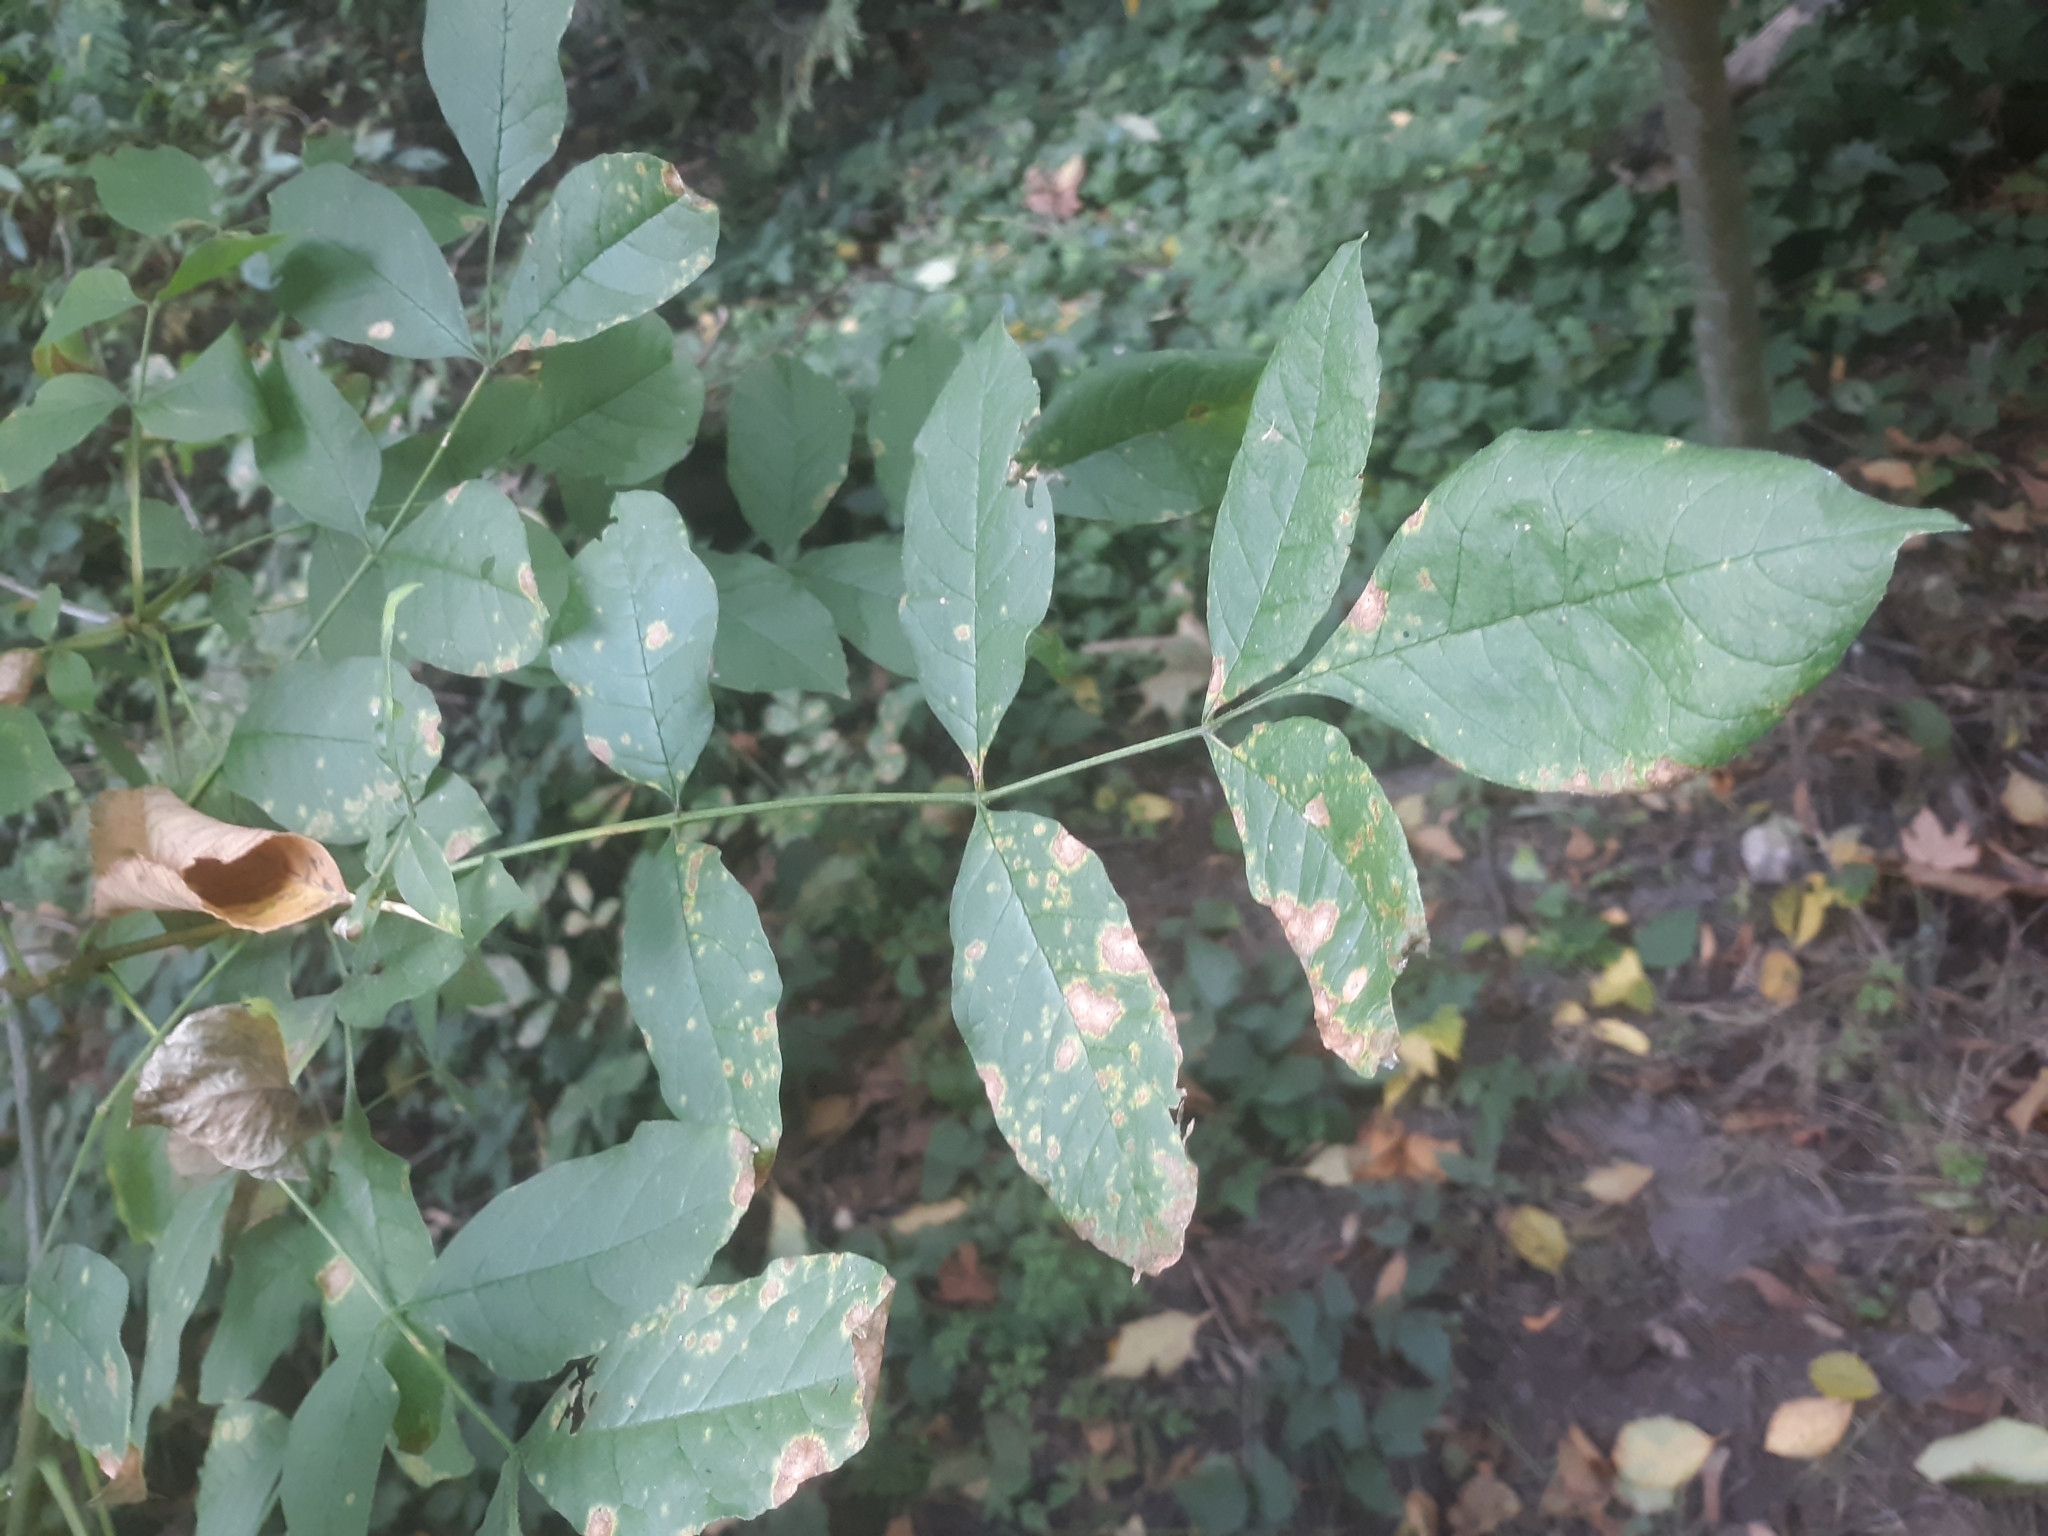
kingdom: Plantae
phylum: Tracheophyta
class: Magnoliopsida
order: Lamiales
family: Oleaceae
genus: Fraxinus
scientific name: Fraxinus latifolia
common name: Oregon ash
